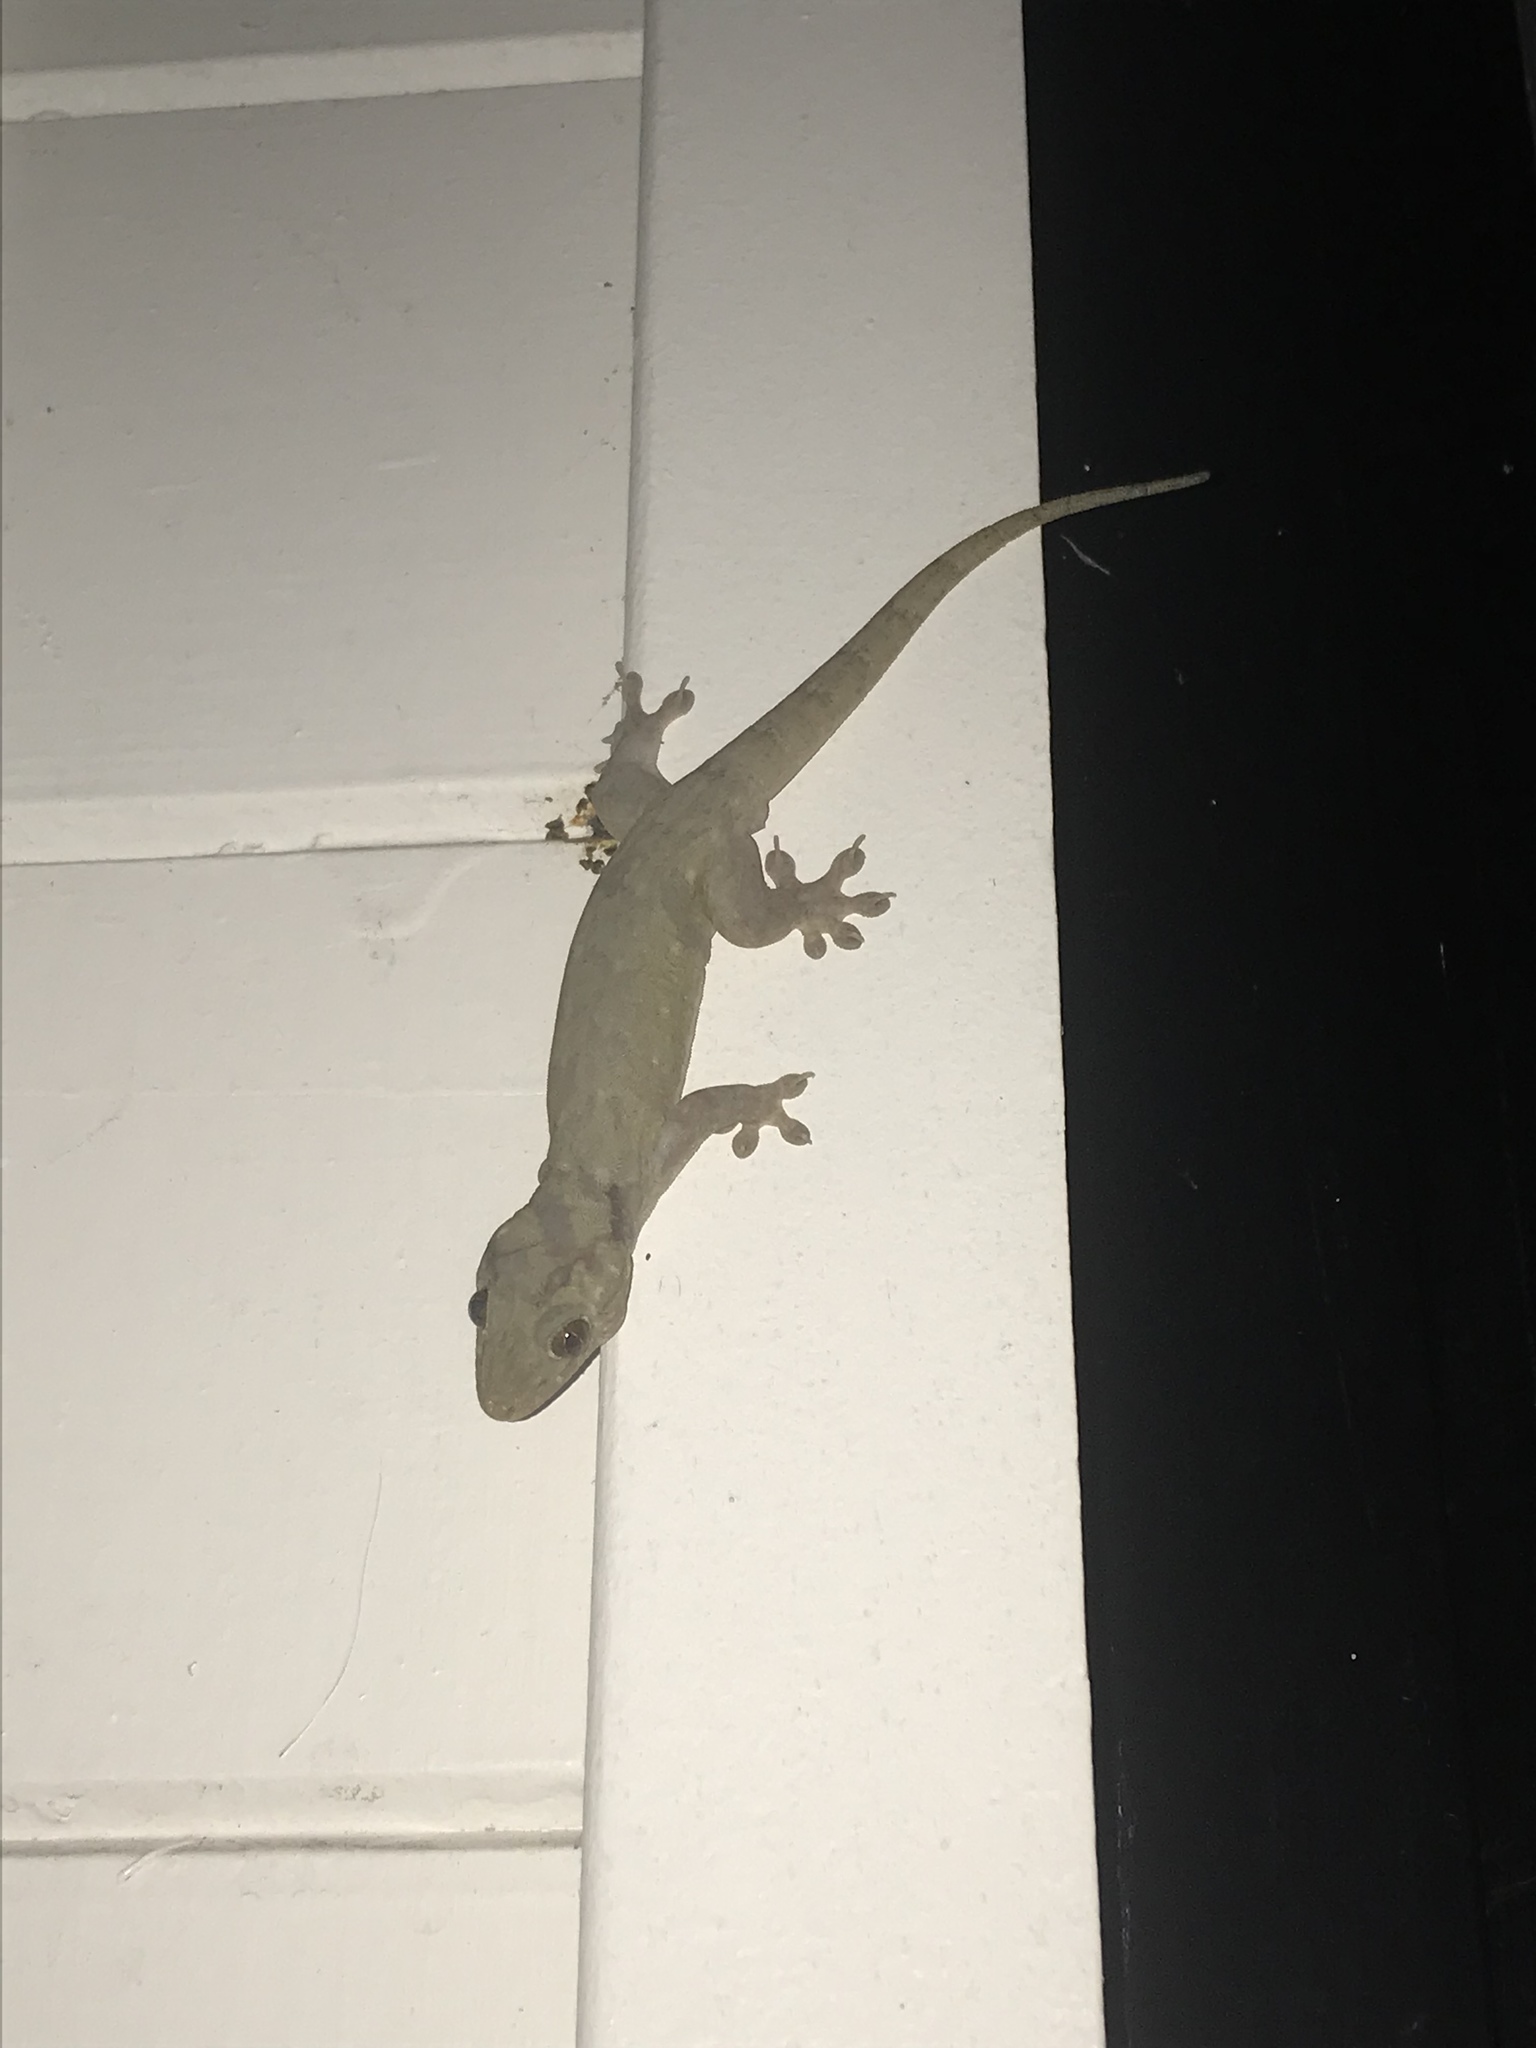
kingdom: Animalia
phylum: Chordata
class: Squamata
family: Gekkonidae
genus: Gehyra
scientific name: Gehyra oceanica
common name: Pacific dtella
